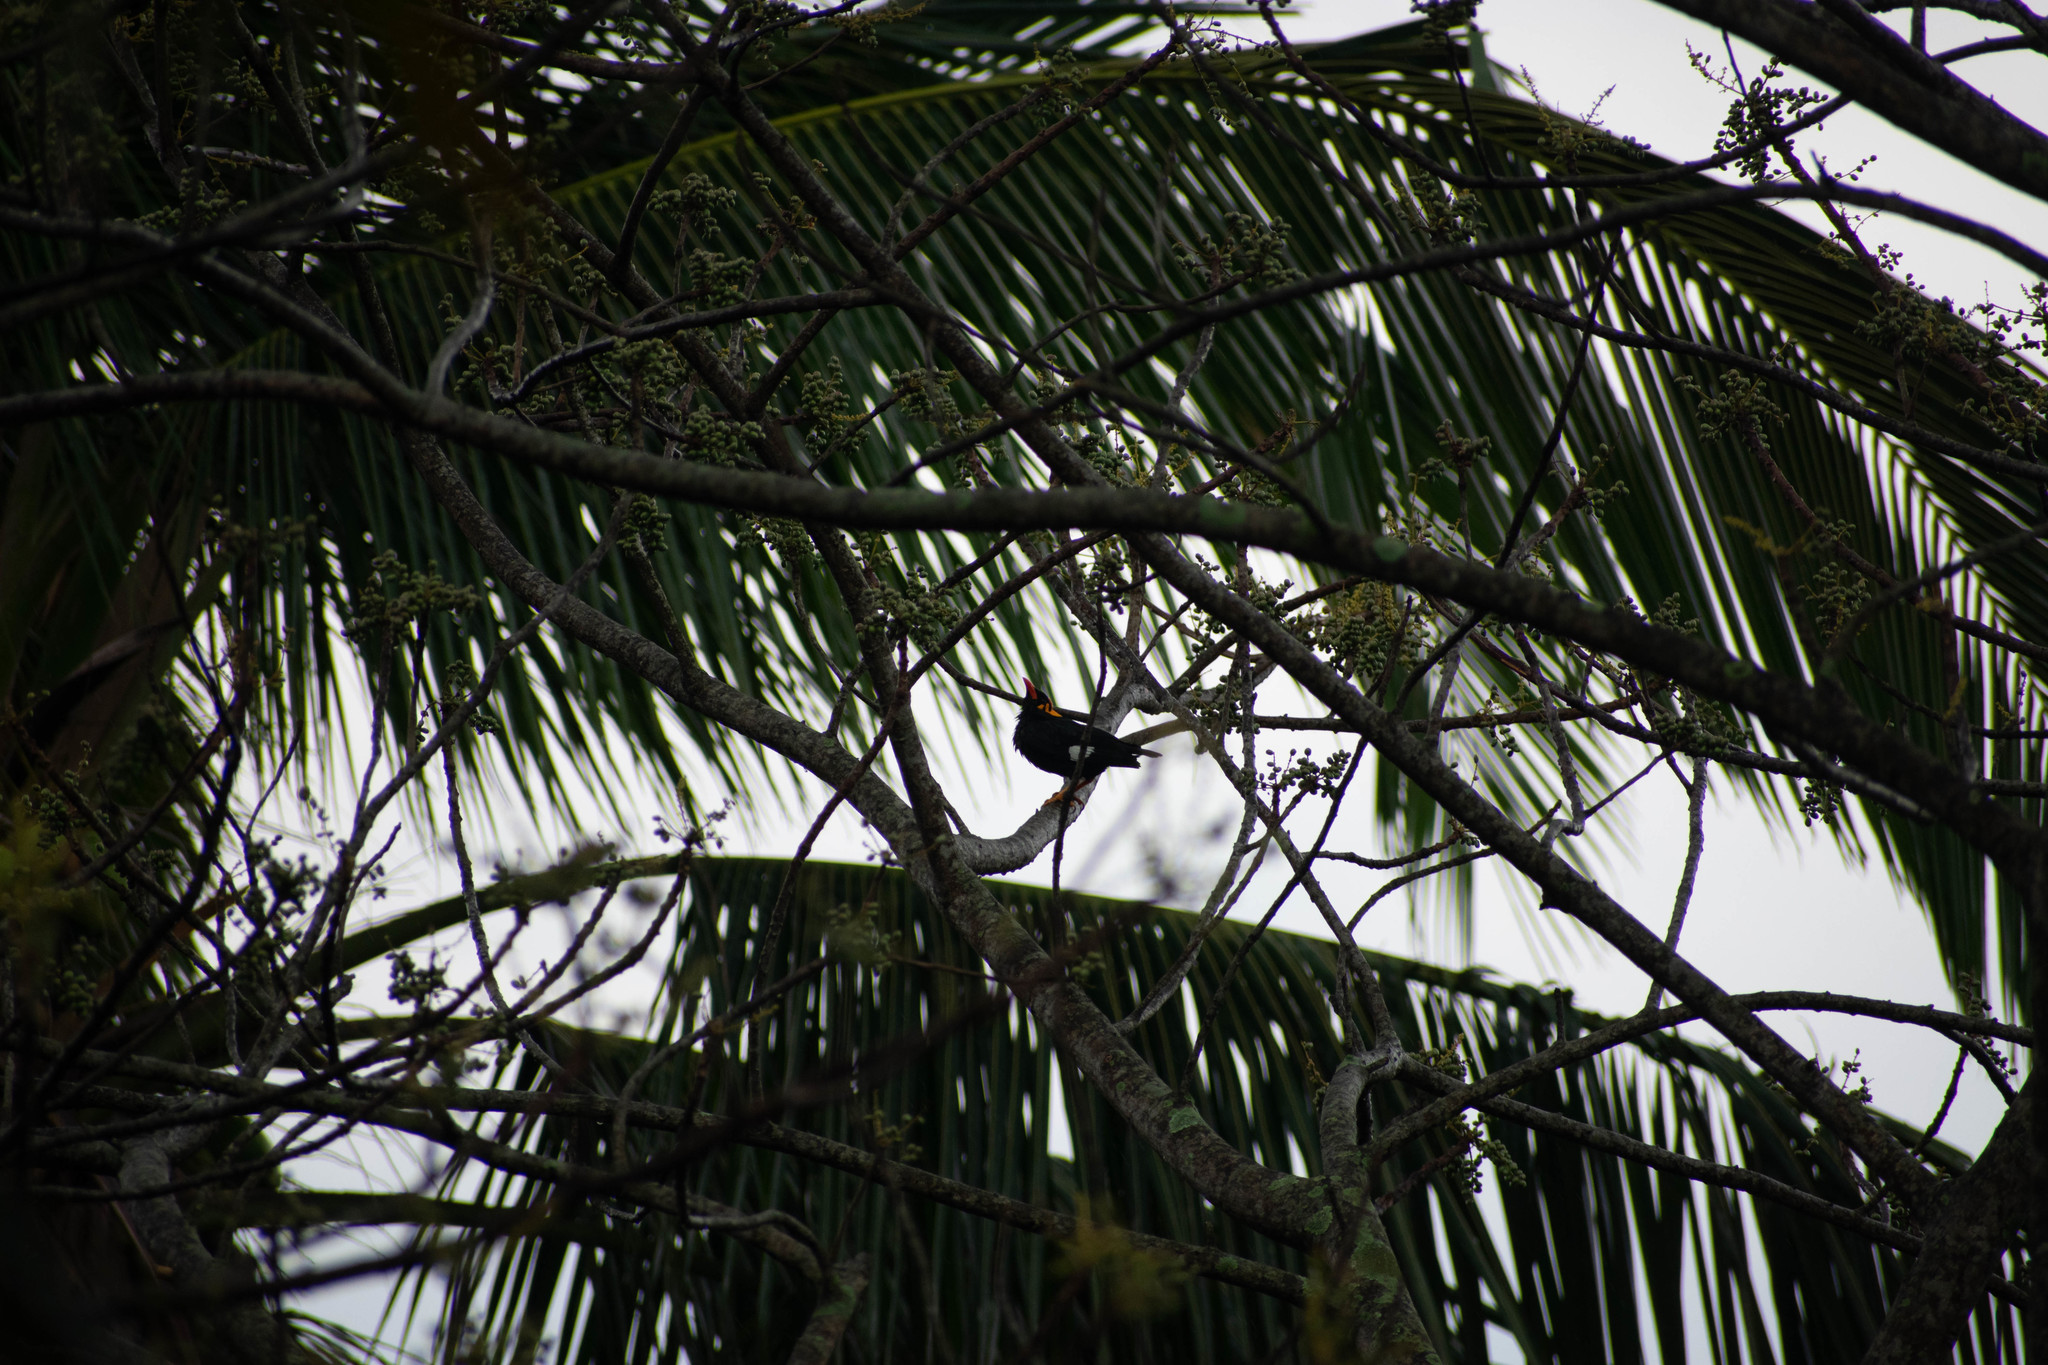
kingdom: Animalia
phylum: Chordata
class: Aves
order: Passeriformes
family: Sturnidae
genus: Gracula
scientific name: Gracula indica
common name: Southern hill myna
